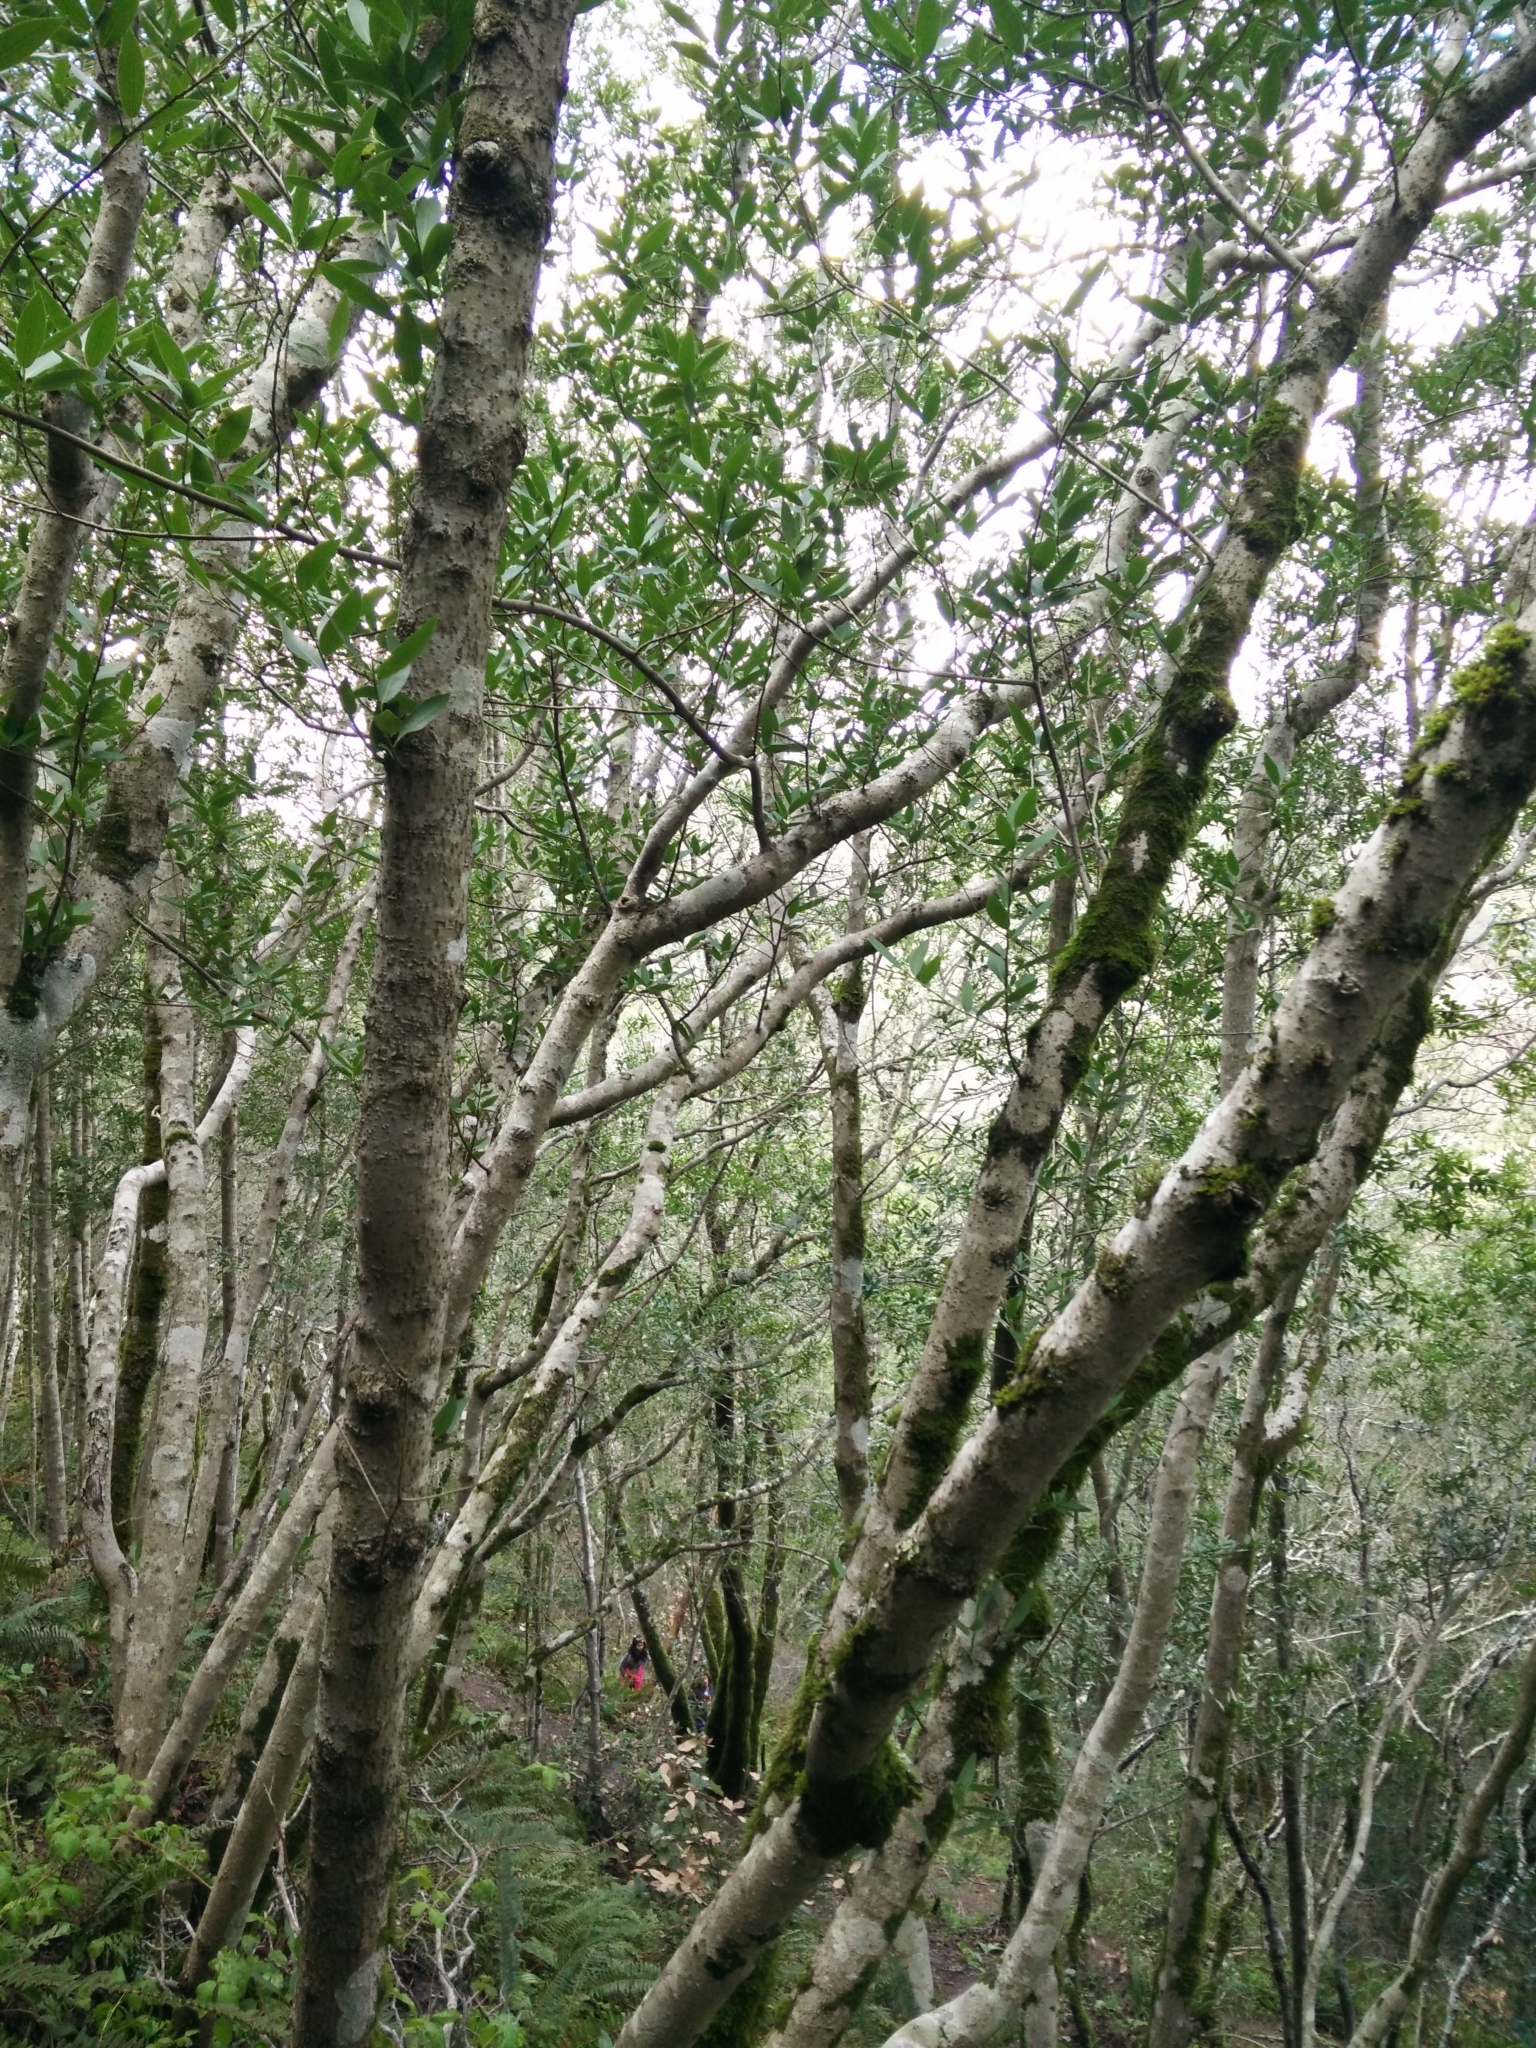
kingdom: Plantae
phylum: Tracheophyta
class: Magnoliopsida
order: Laurales
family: Lauraceae
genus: Umbellularia
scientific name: Umbellularia californica
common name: California bay
